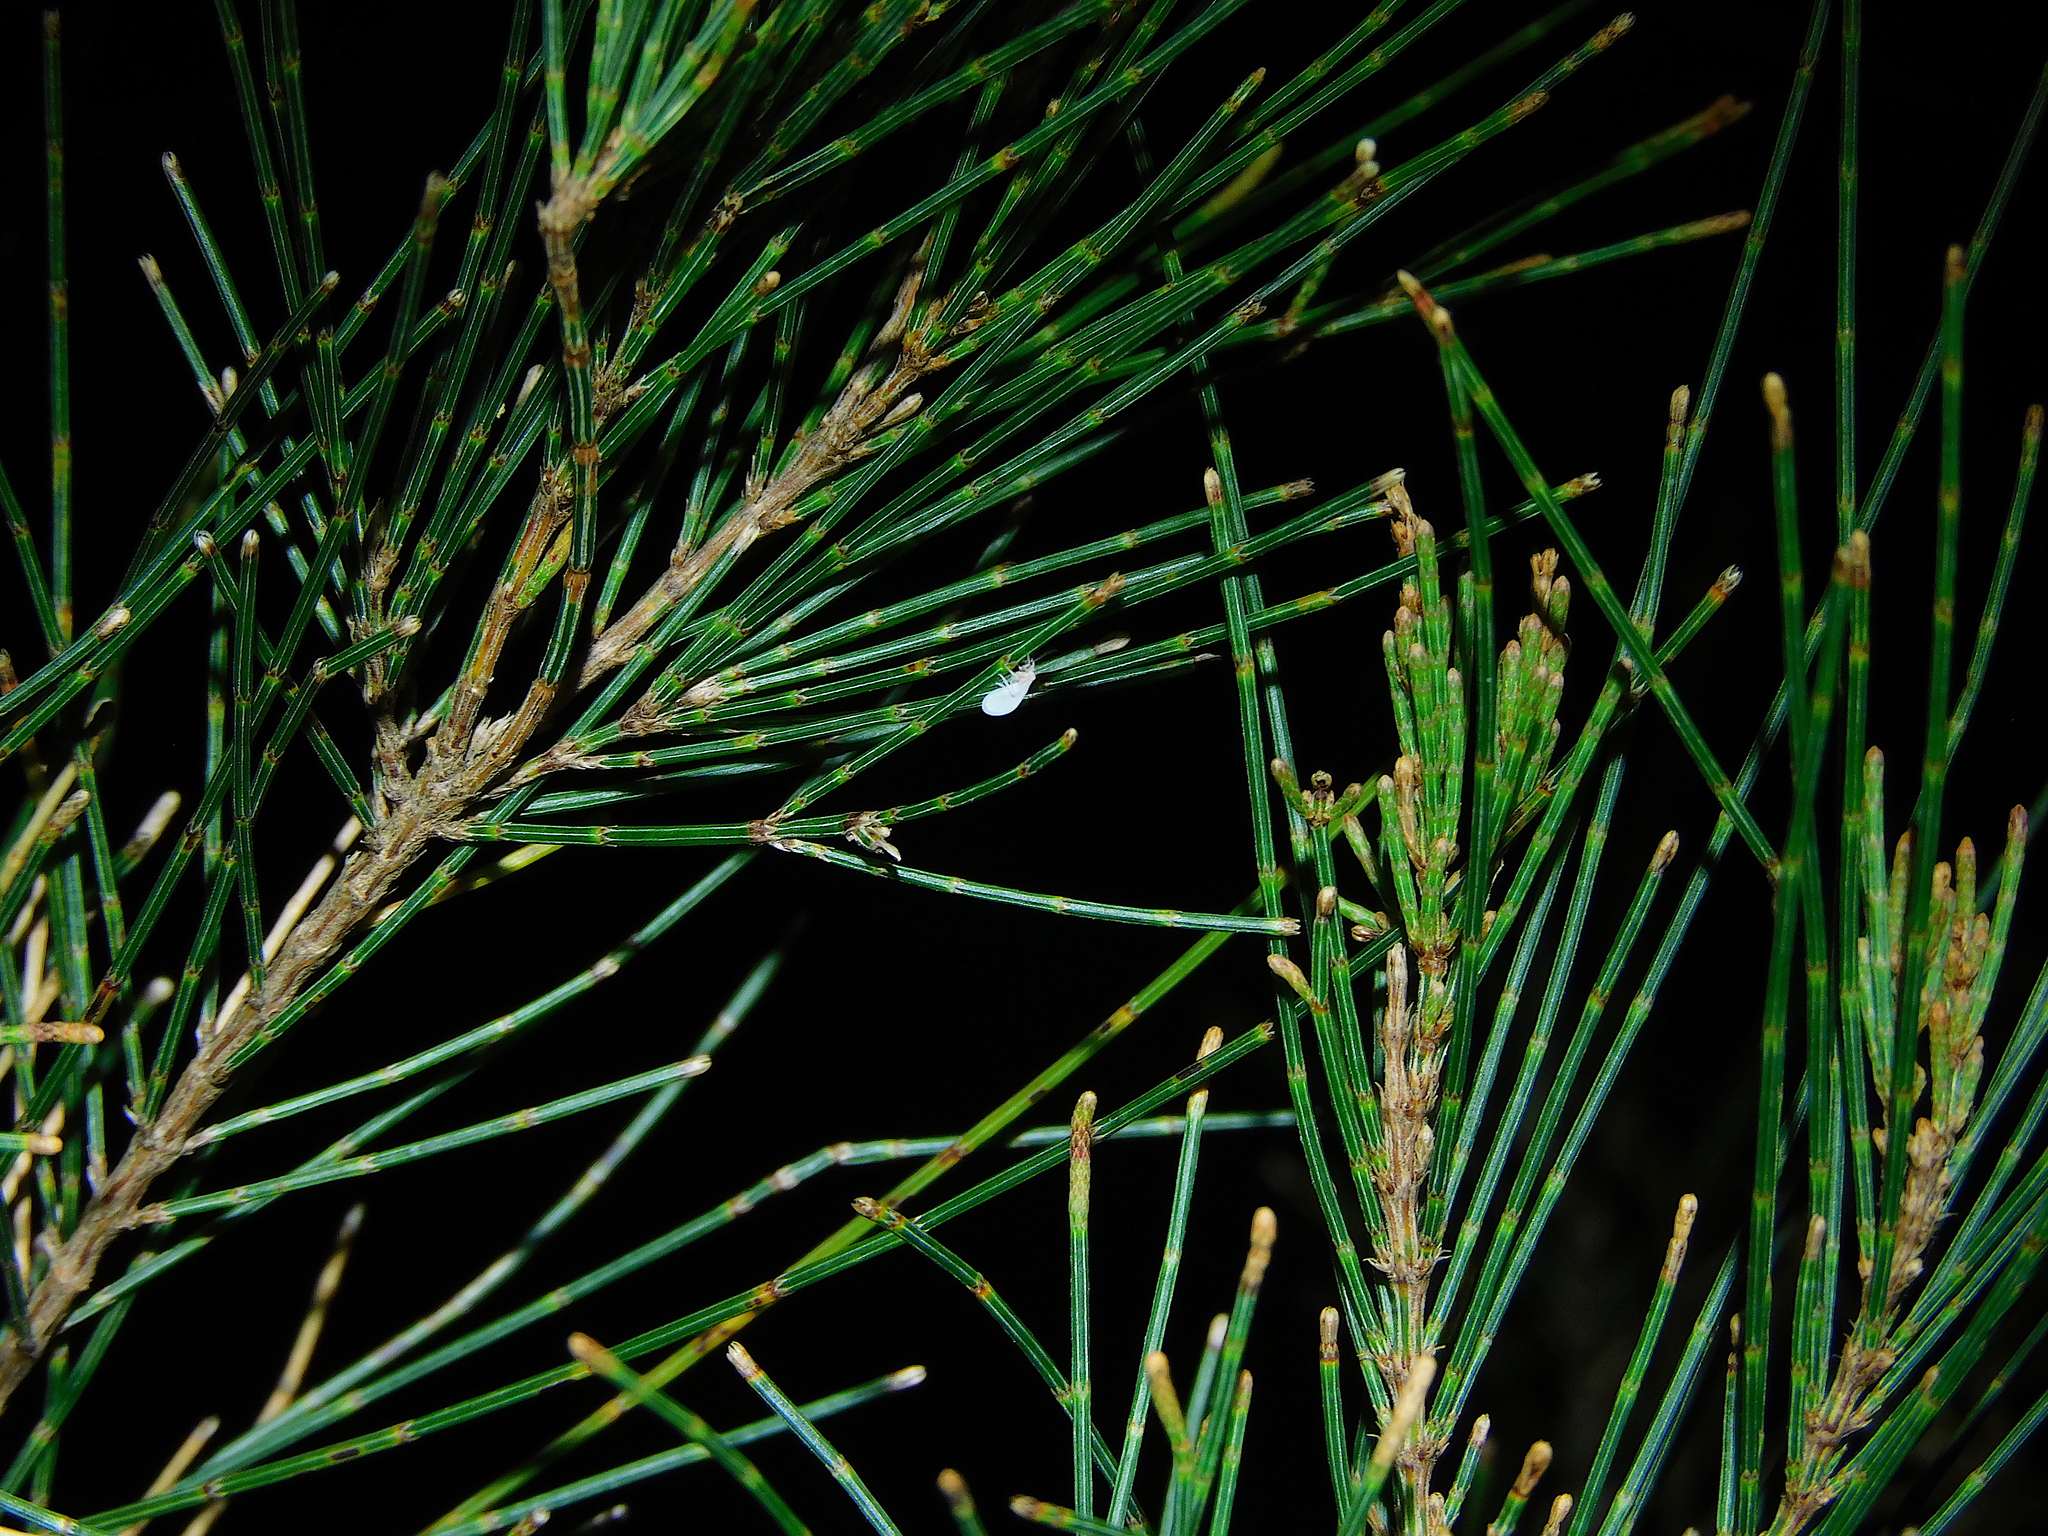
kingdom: Animalia
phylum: Arthropoda
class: Insecta
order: Neuroptera
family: Coniopterygidae
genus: Cryptoscenea
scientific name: Cryptoscenea australiensis
